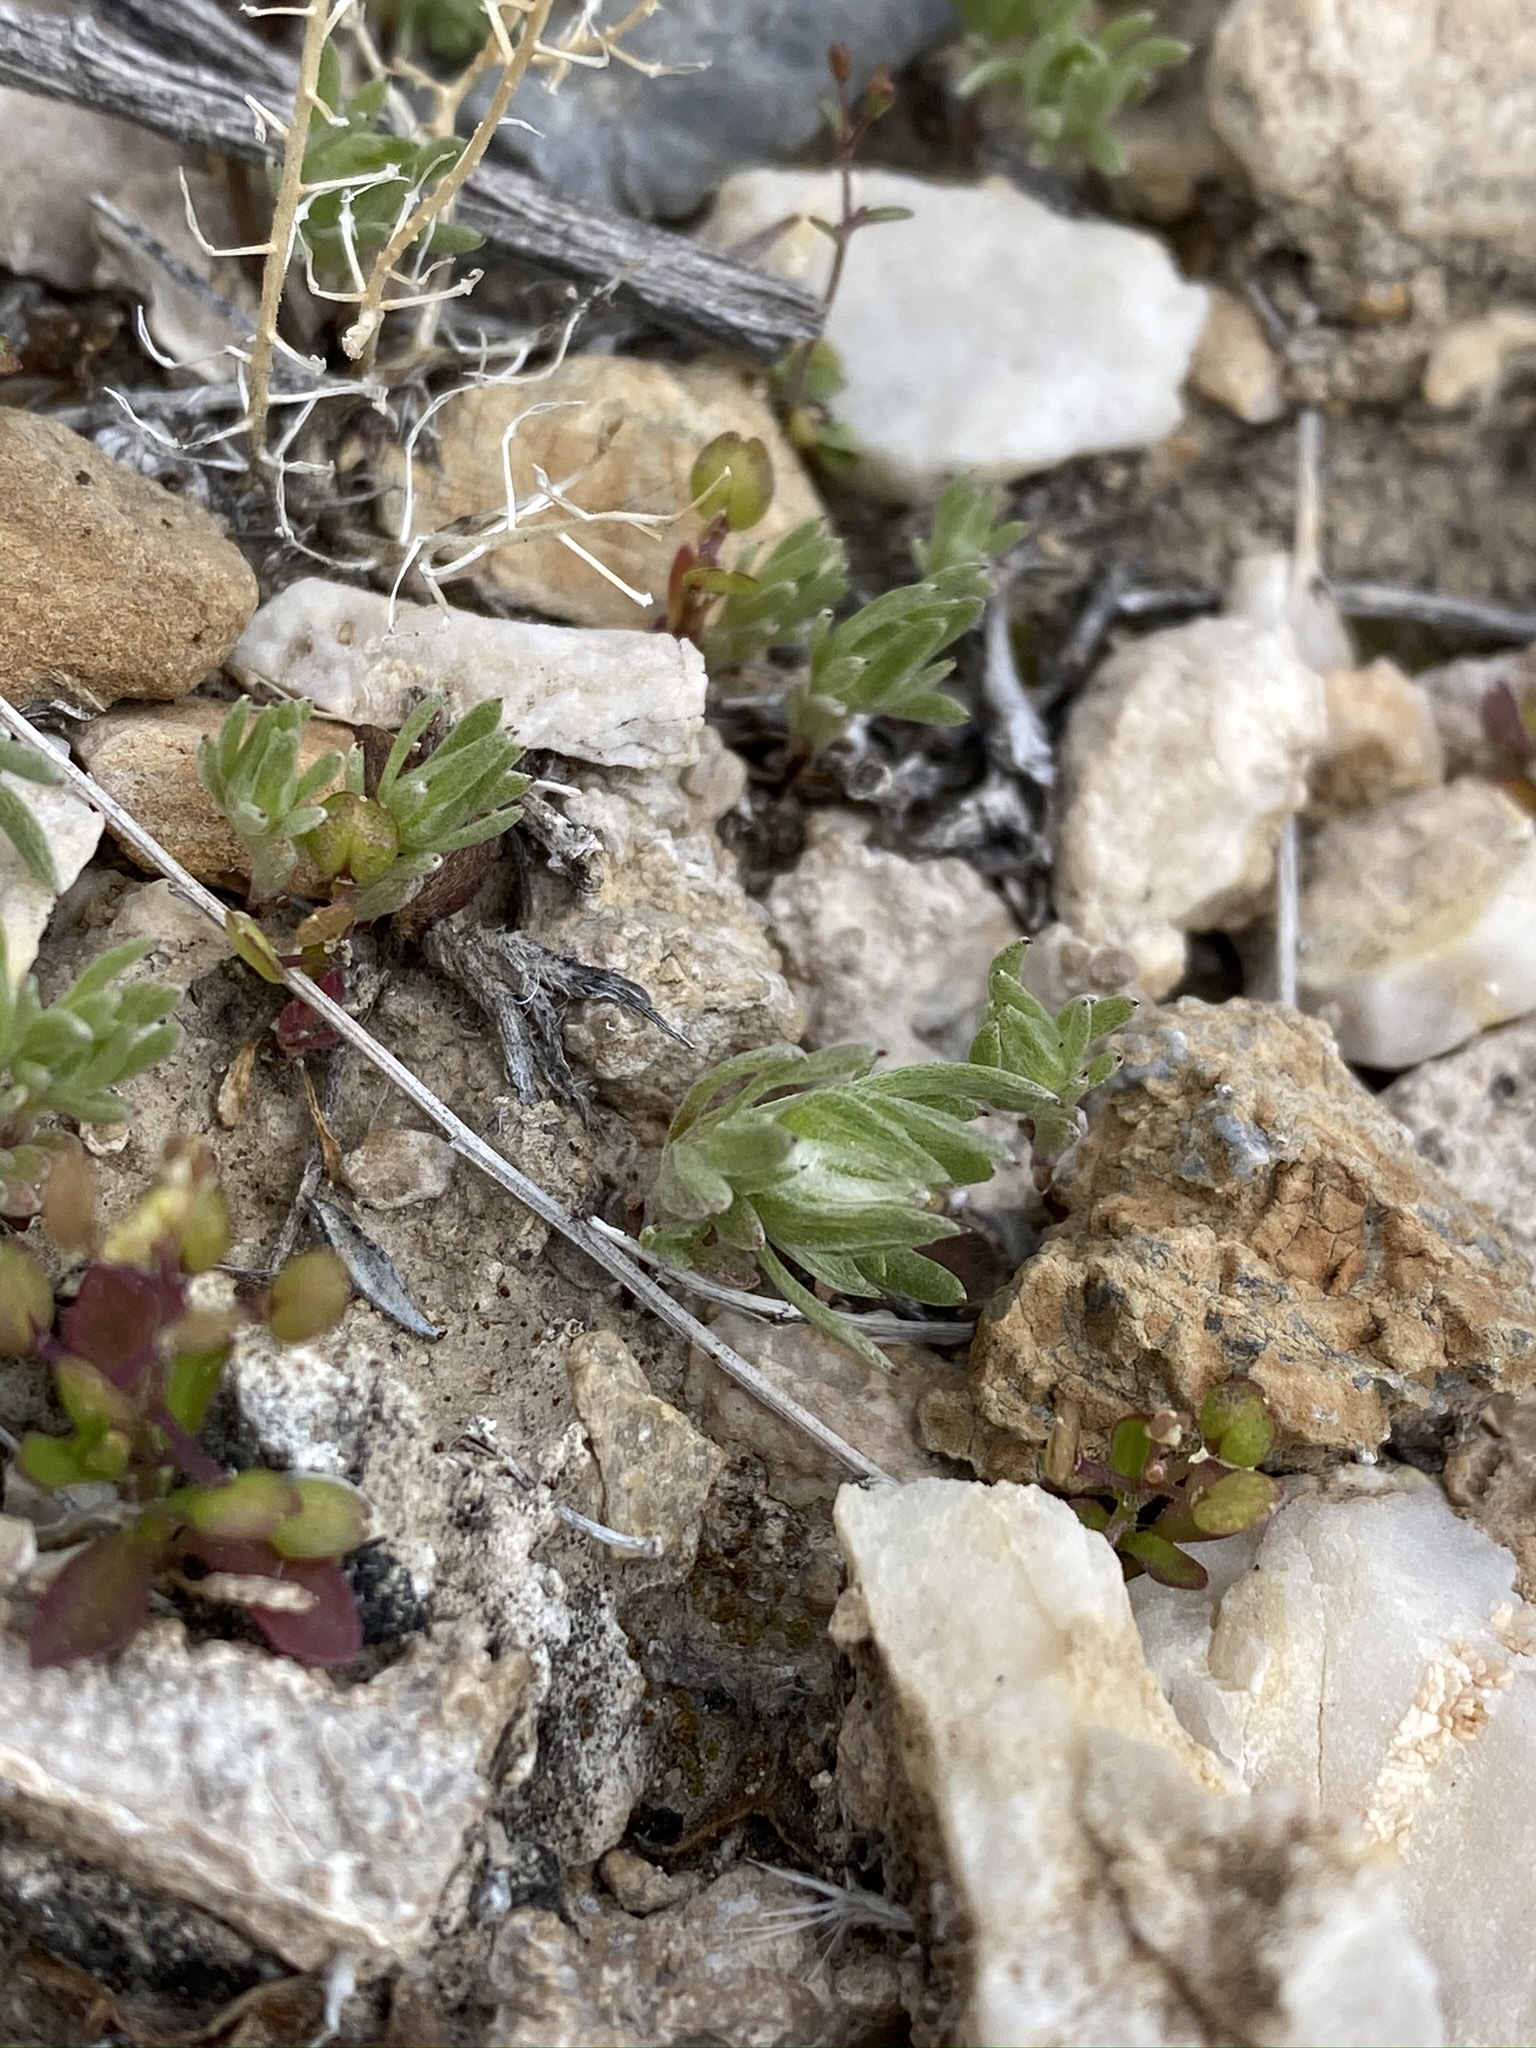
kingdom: Plantae
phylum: Tracheophyta
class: Magnoliopsida
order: Asterales
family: Asteraceae
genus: Stylocline
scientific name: Stylocline micropoides
